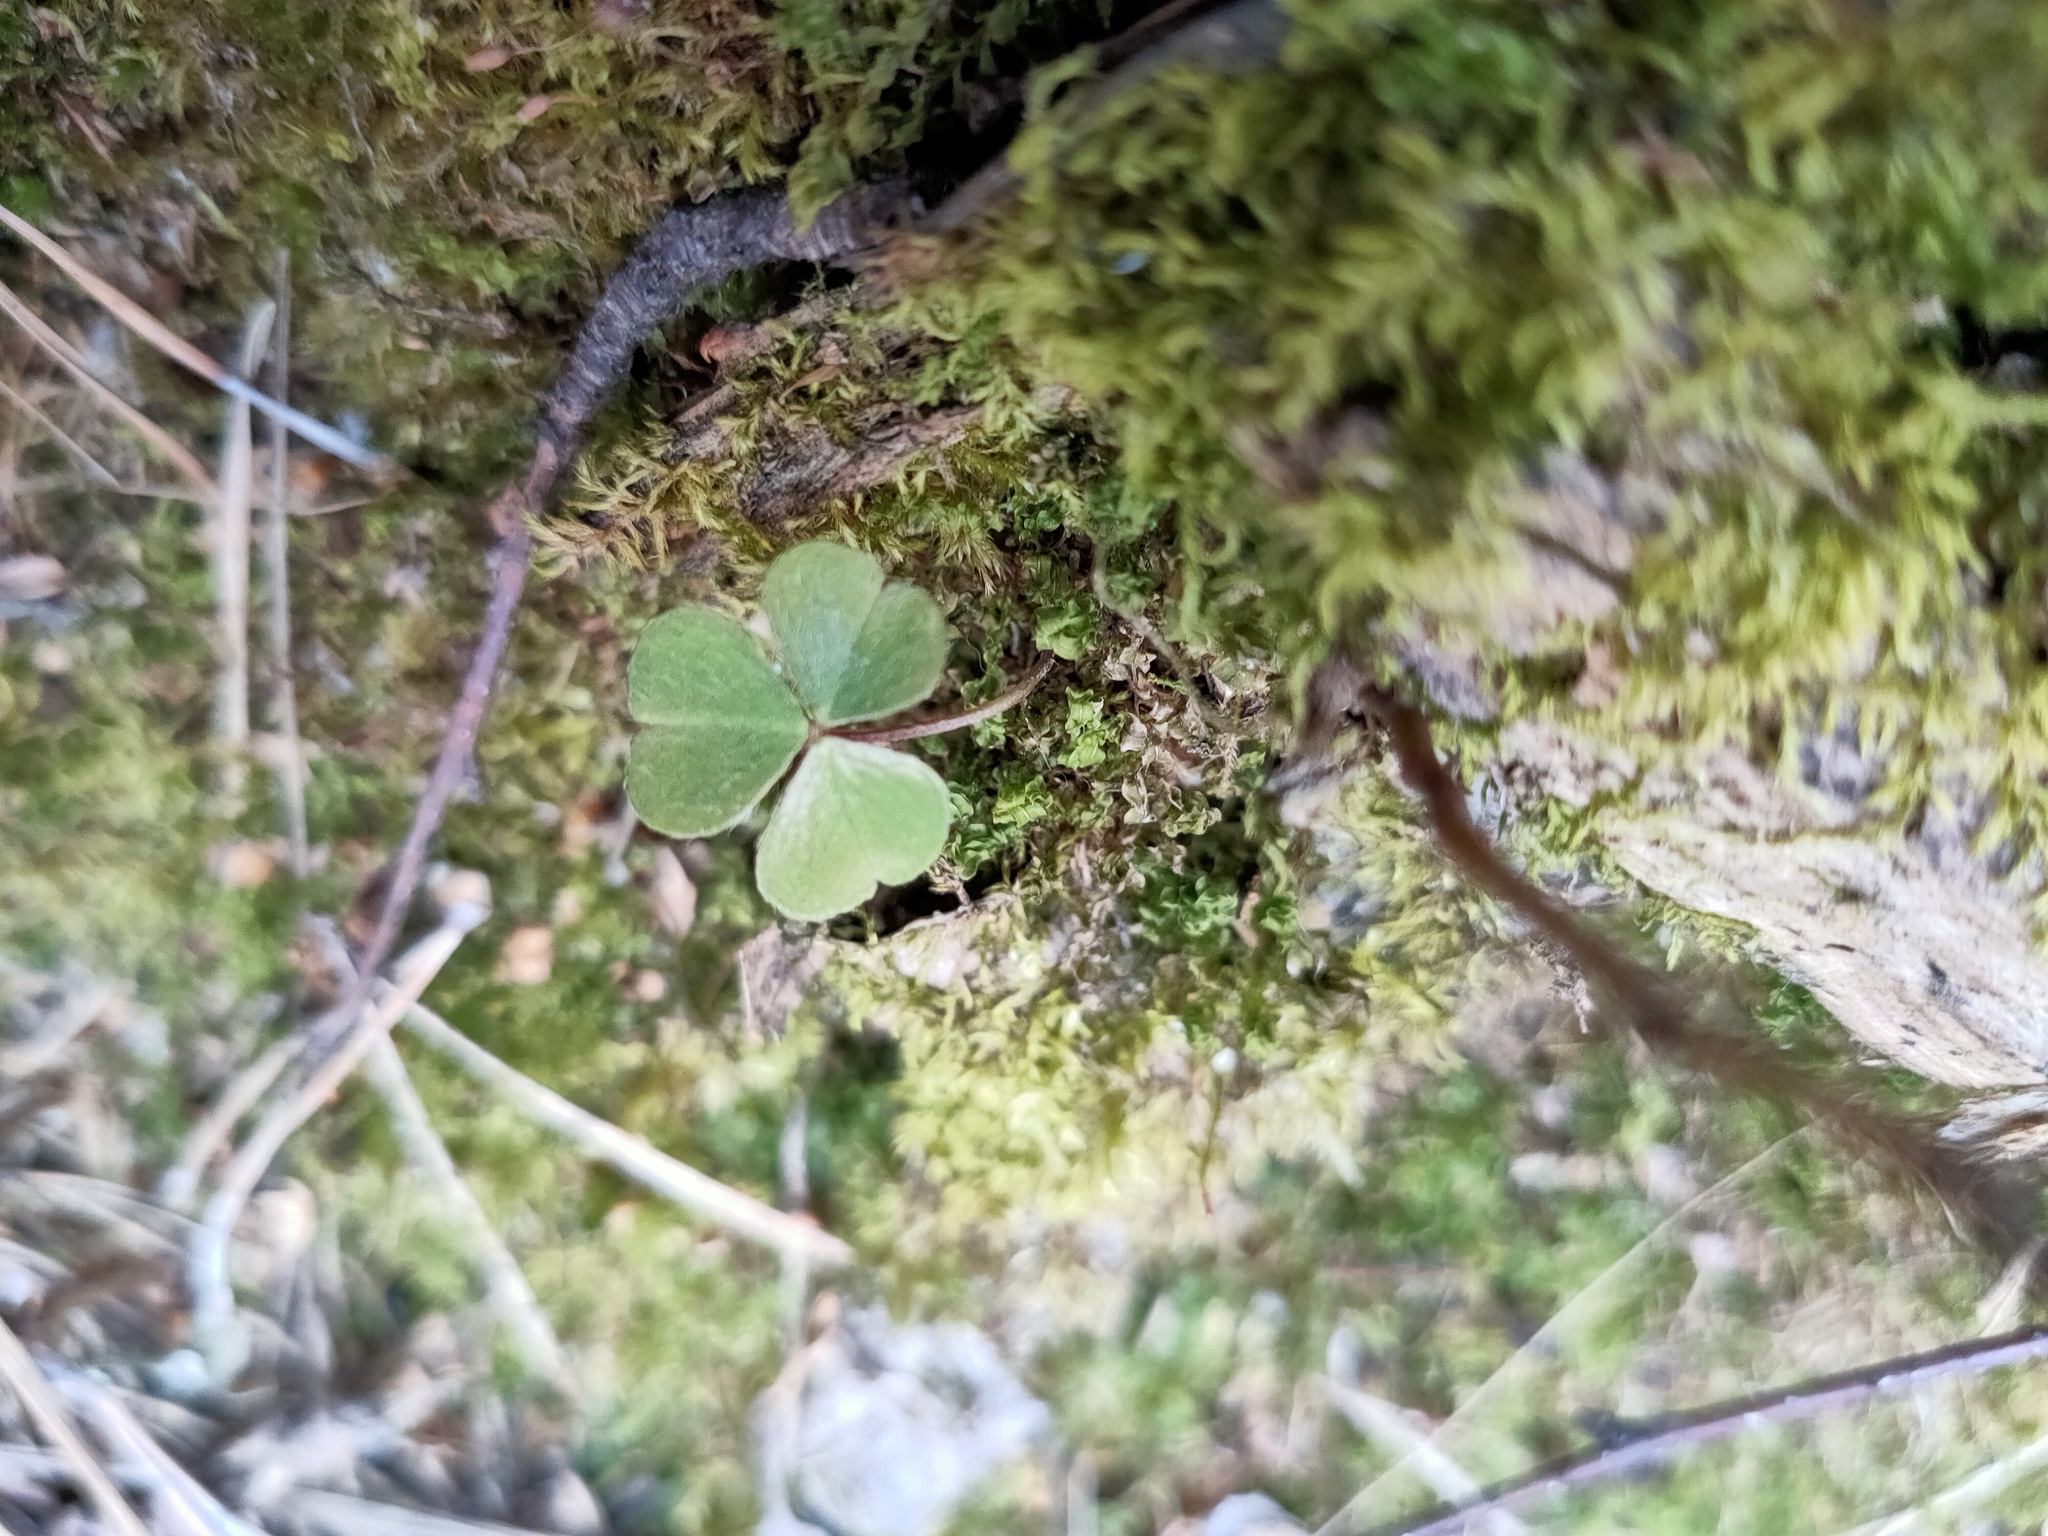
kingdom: Plantae
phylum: Tracheophyta
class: Magnoliopsida
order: Oxalidales
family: Oxalidaceae
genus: Oxalis
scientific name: Oxalis acetosella
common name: Wood-sorrel
